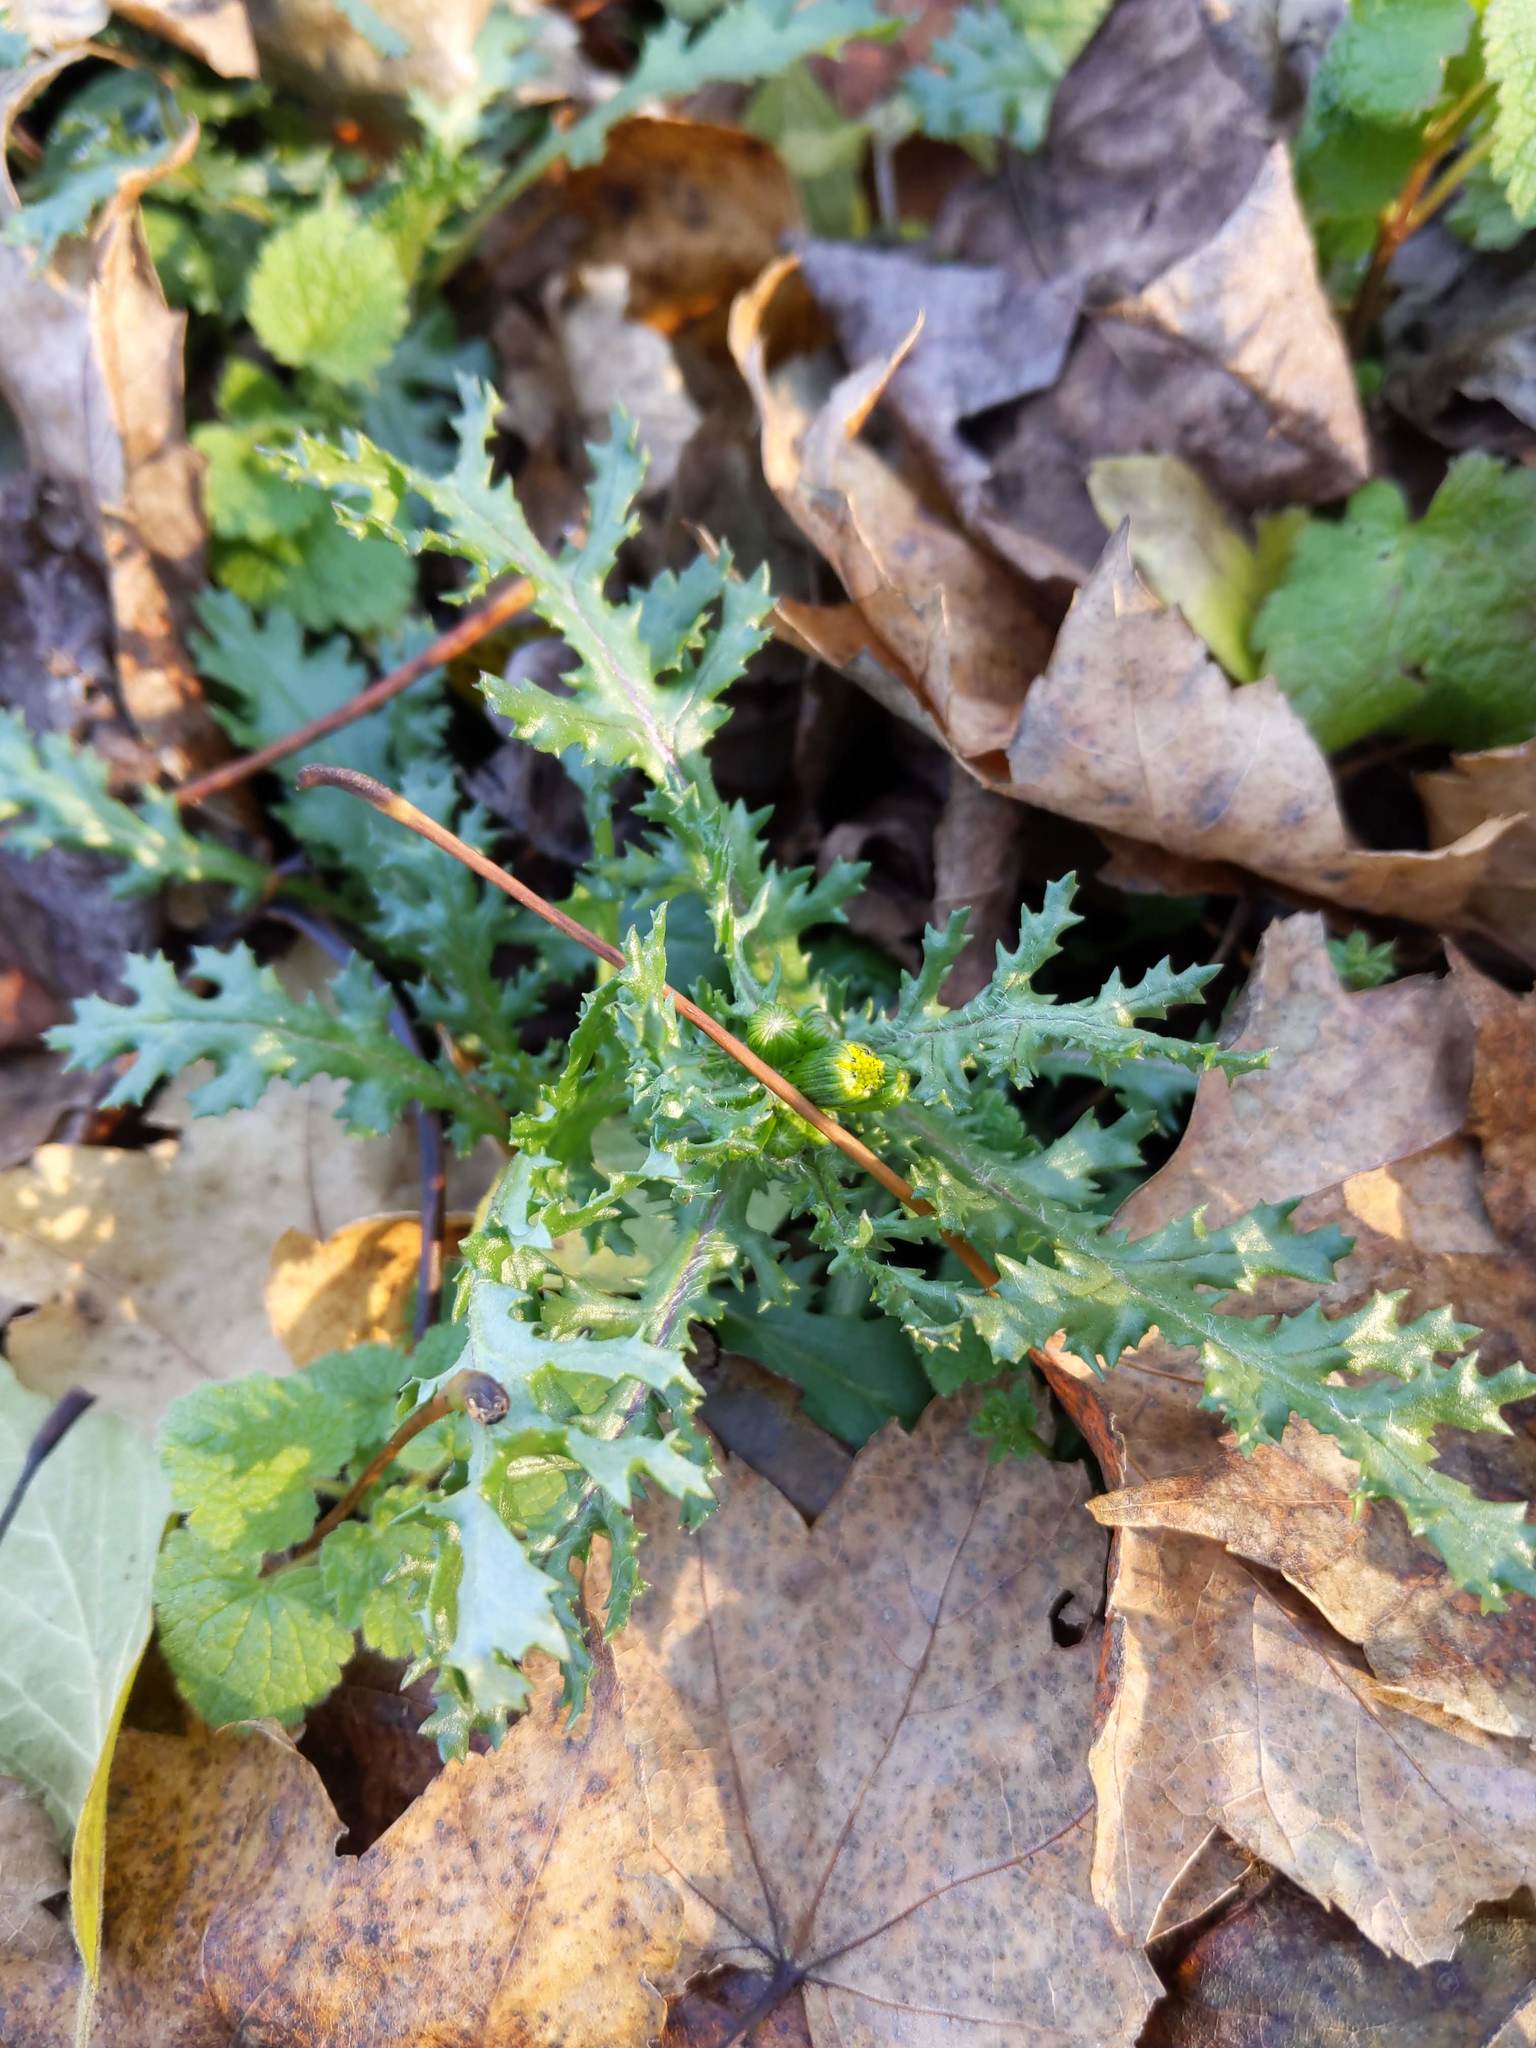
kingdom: Plantae
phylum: Tracheophyta
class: Magnoliopsida
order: Asterales
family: Asteraceae
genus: Senecio
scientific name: Senecio vulgaris
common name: Old-man-in-the-spring
